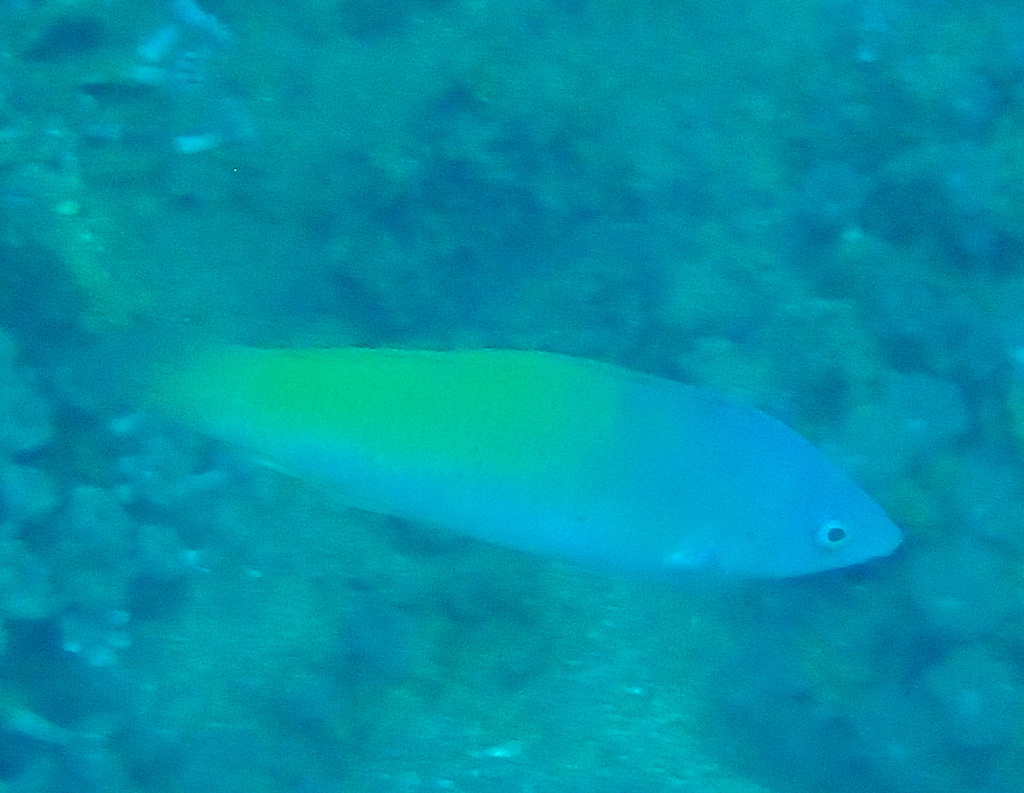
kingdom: Animalia
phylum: Chordata
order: Perciformes
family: Labridae
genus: Halichoeres
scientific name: Halichoeres prosopeion
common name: Half-grey wrasse
